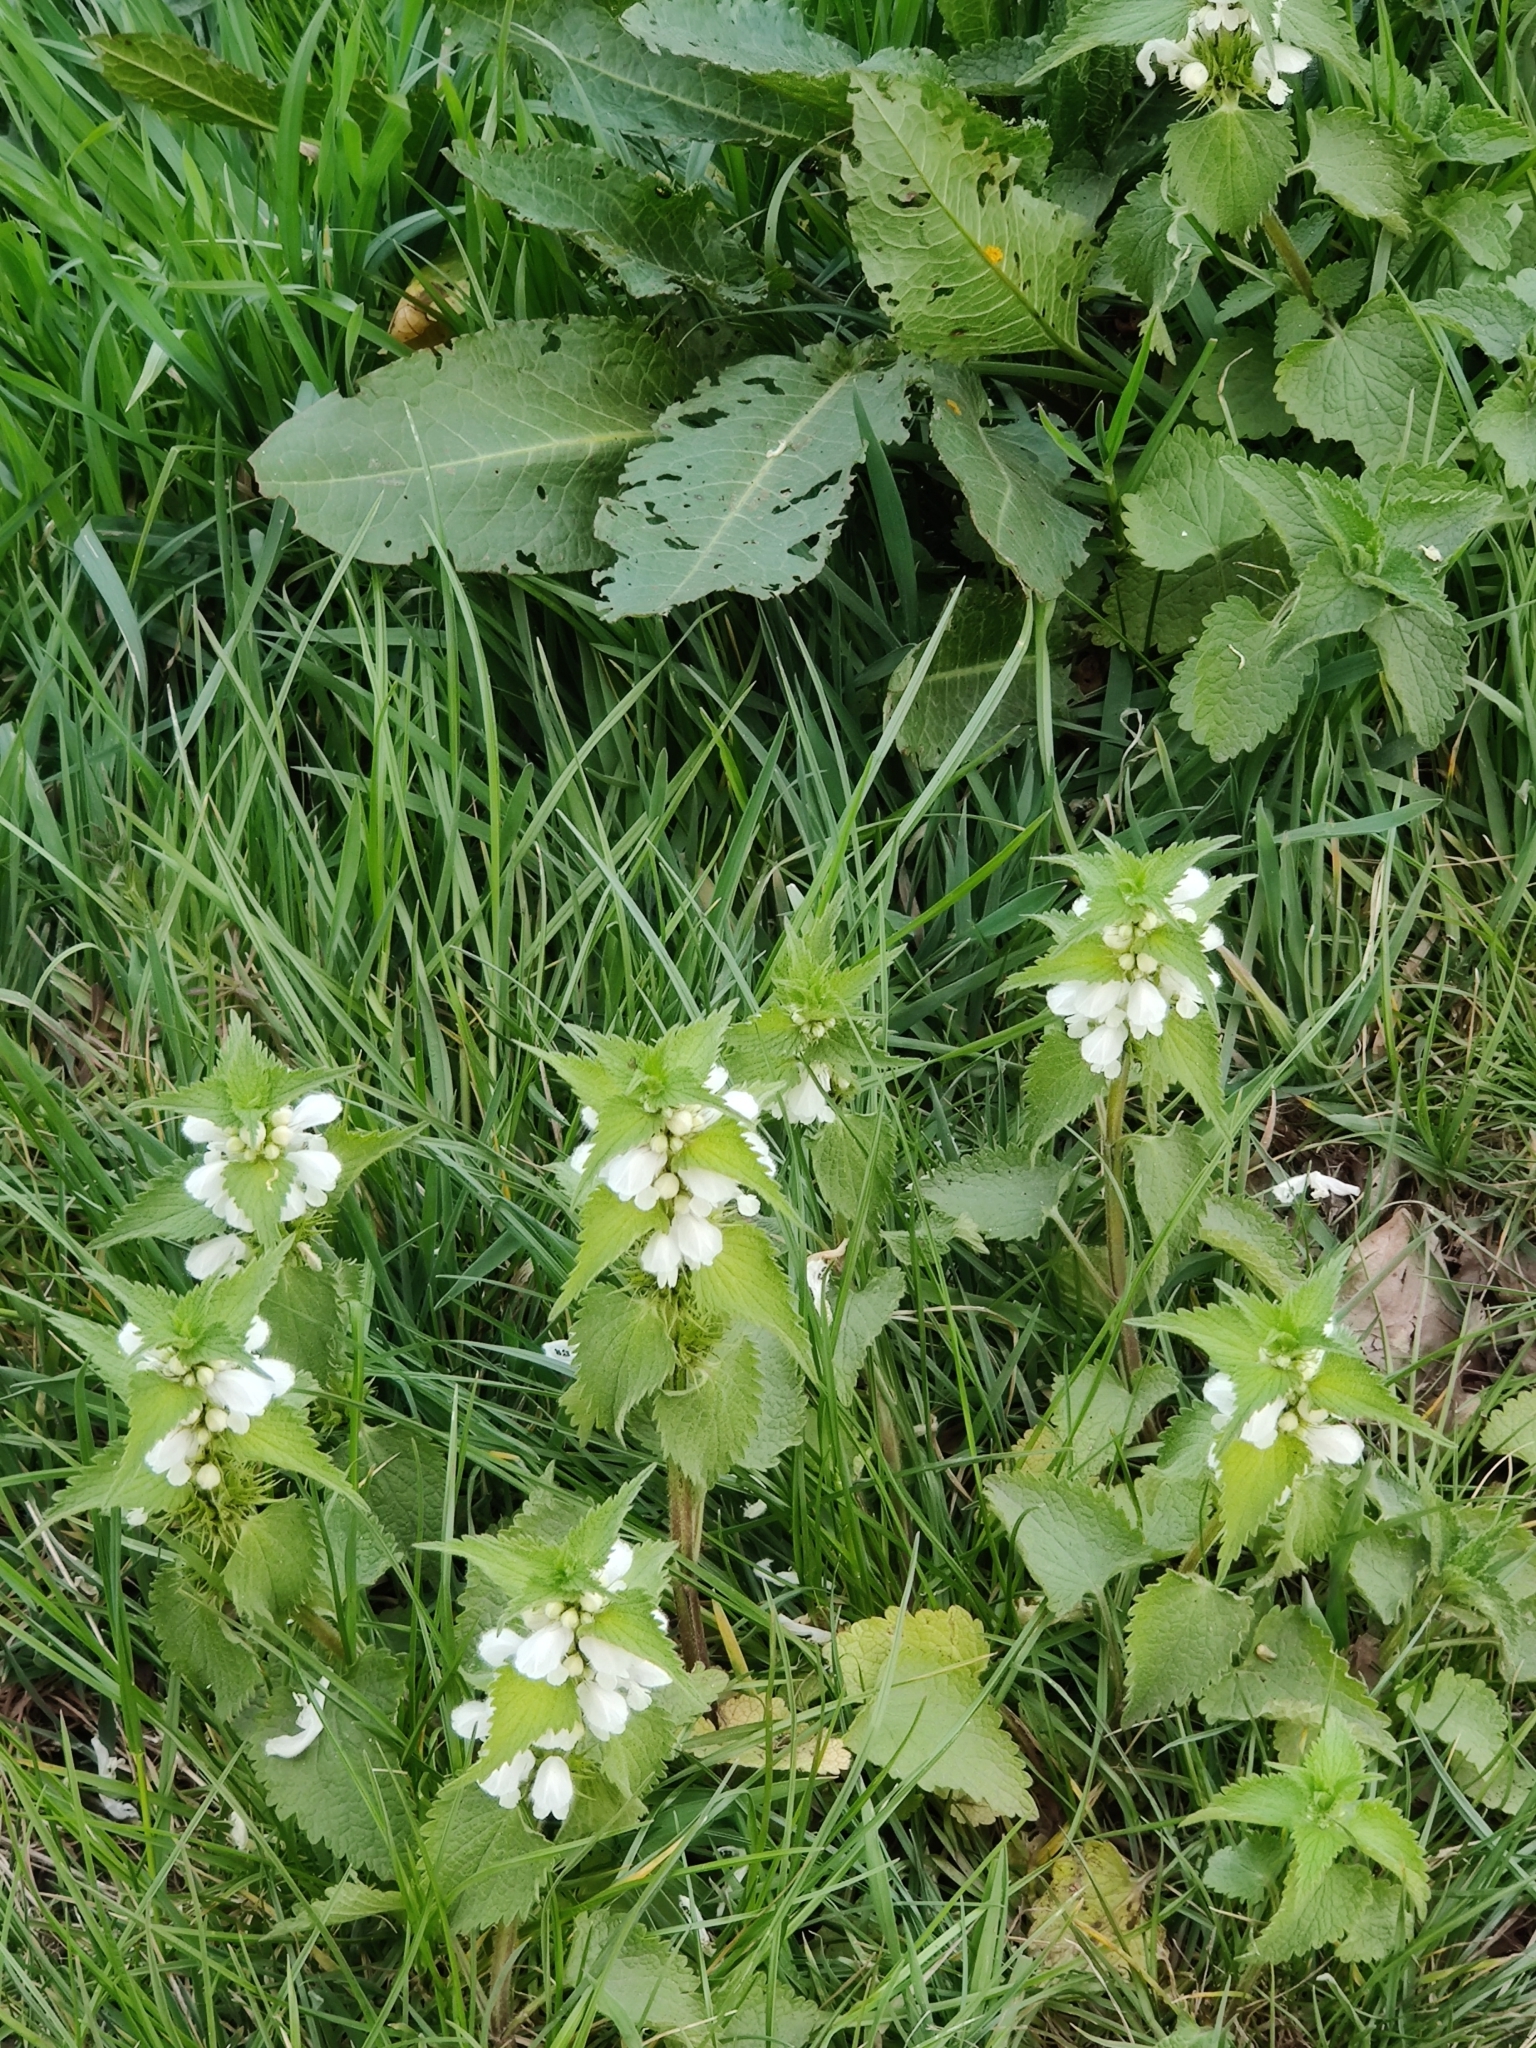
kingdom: Plantae
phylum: Tracheophyta
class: Magnoliopsida
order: Lamiales
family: Lamiaceae
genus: Lamium
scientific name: Lamium album
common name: White dead-nettle
